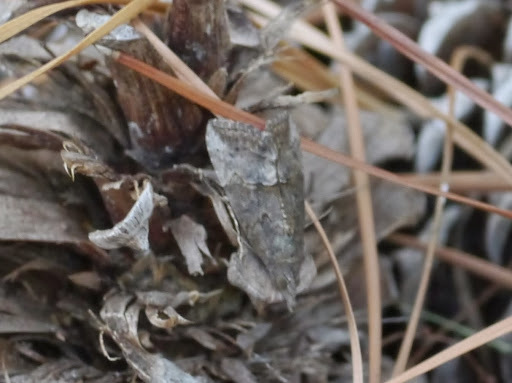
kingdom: Animalia
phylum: Arthropoda
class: Insecta
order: Lepidoptera
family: Erebidae
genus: Hypena
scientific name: Hypena scabra
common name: Green cloverworm
